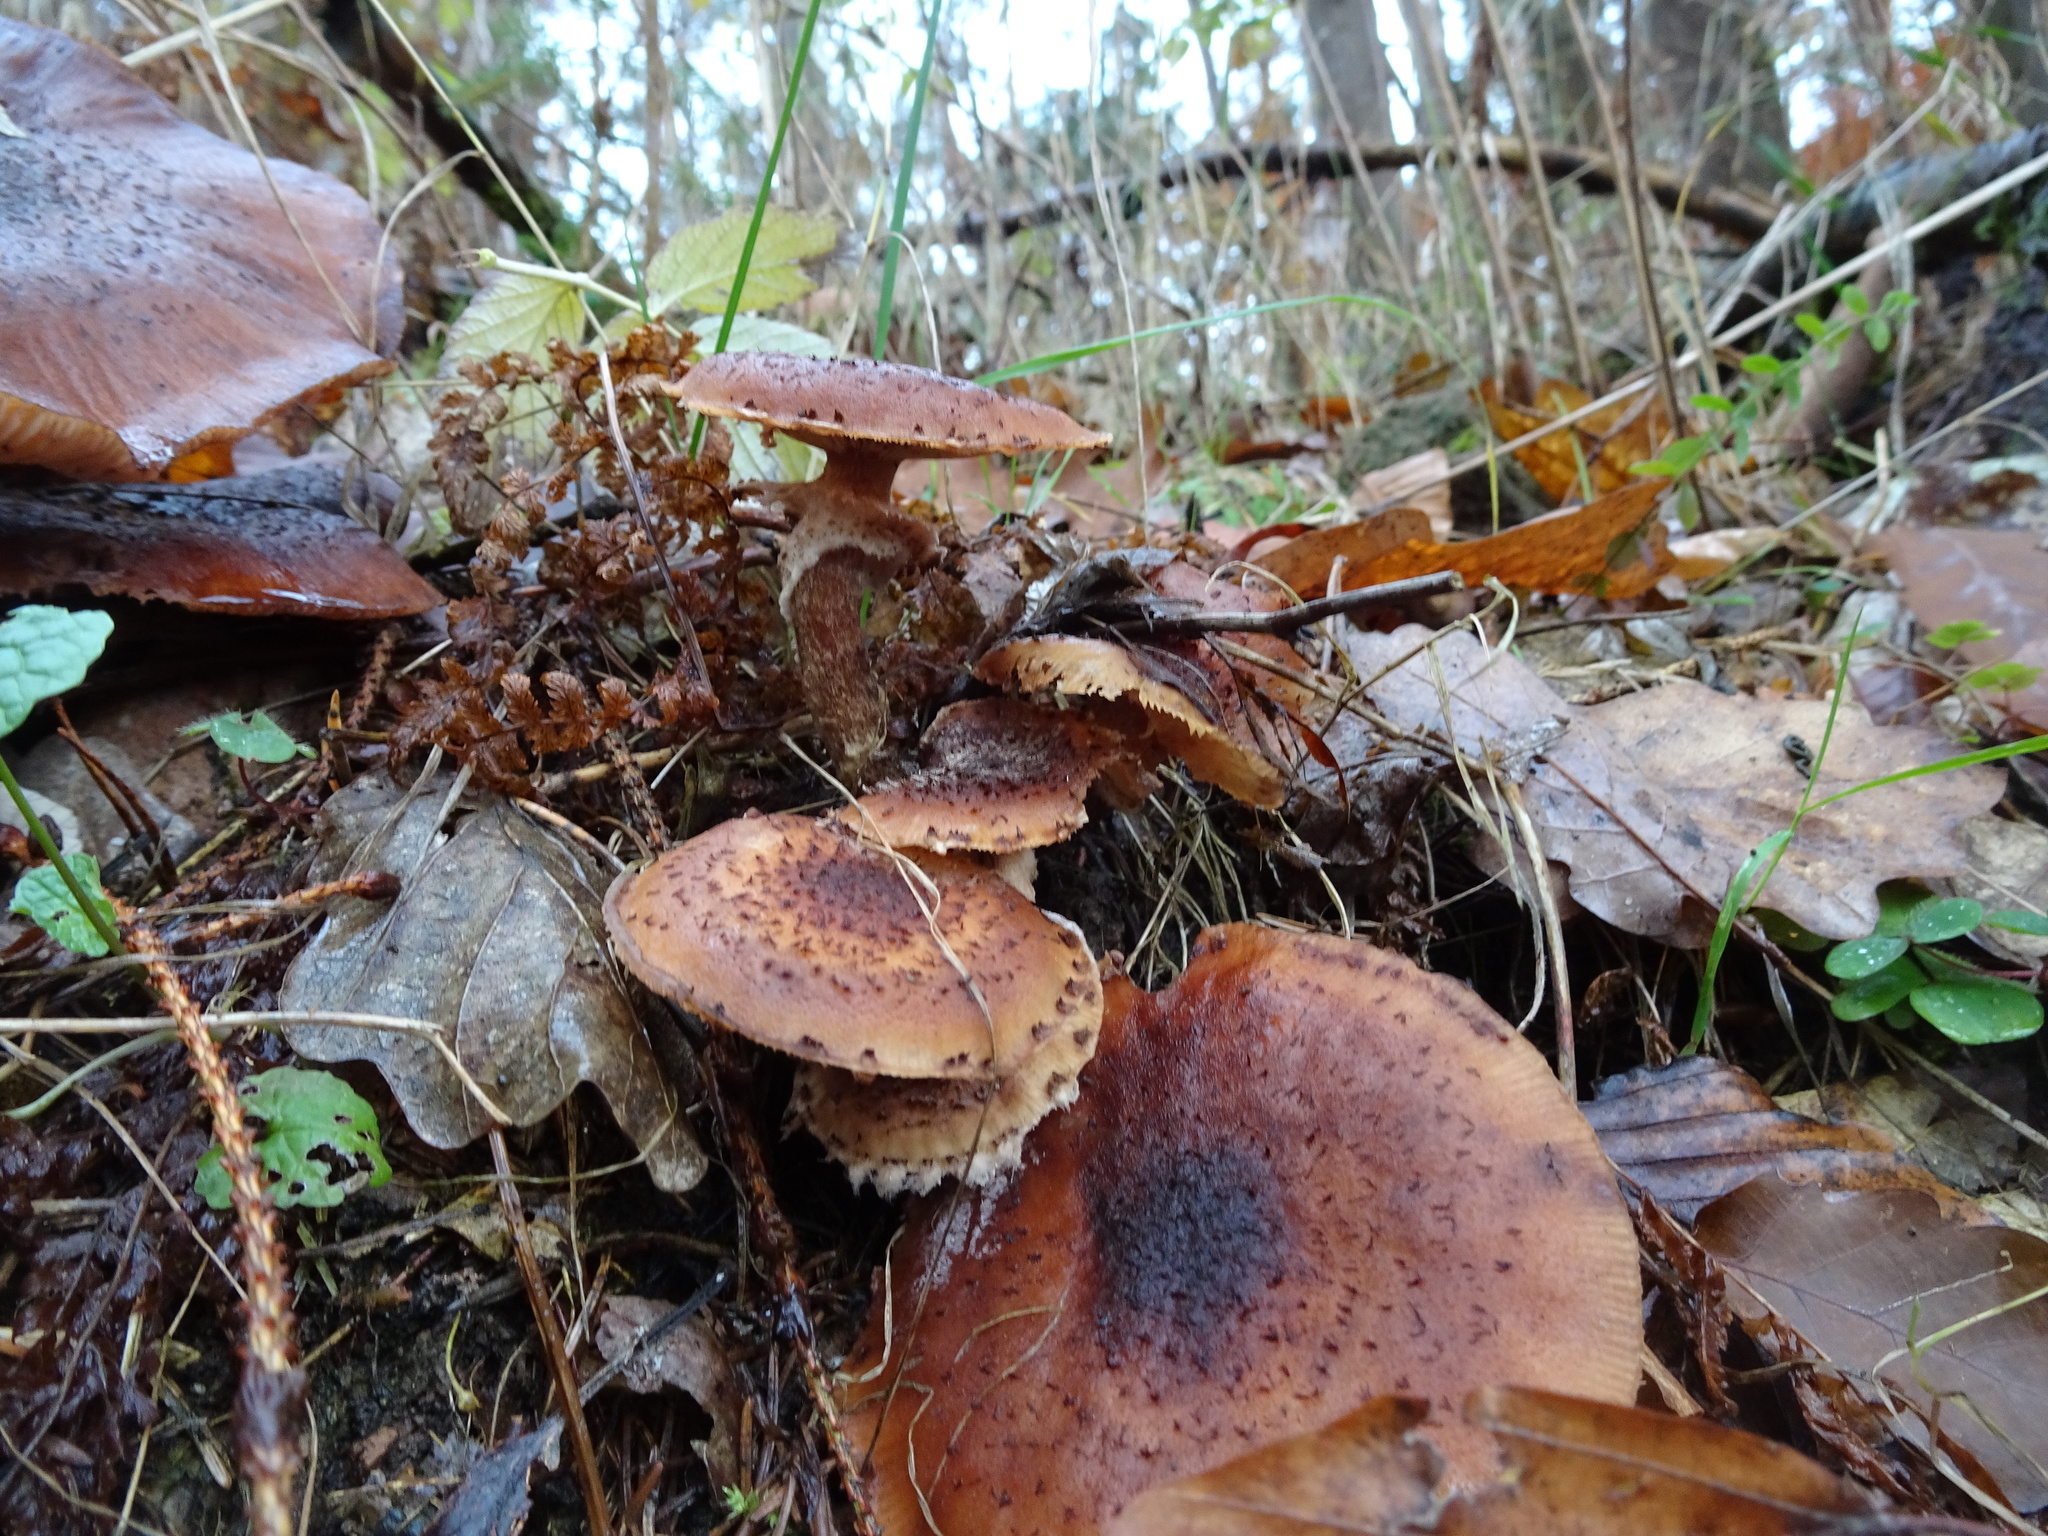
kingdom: Fungi
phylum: Basidiomycota
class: Agaricomycetes
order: Agaricales
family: Physalacriaceae
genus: Armillaria
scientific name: Armillaria mellea
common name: Honey fungus
